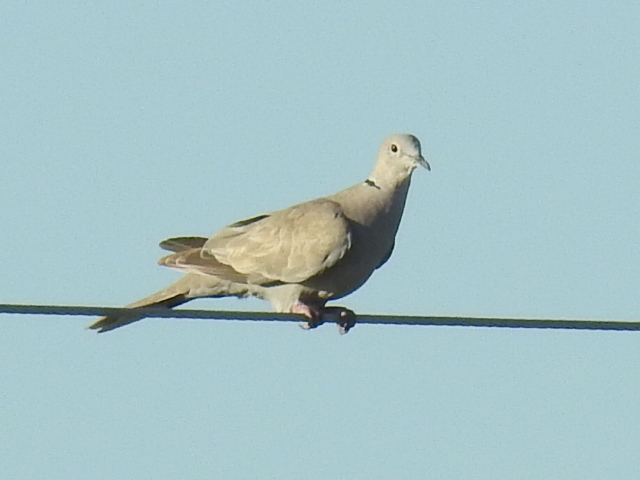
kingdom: Animalia
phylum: Chordata
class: Aves
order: Columbiformes
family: Columbidae
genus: Streptopelia
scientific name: Streptopelia decaocto
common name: Eurasian collared dove
